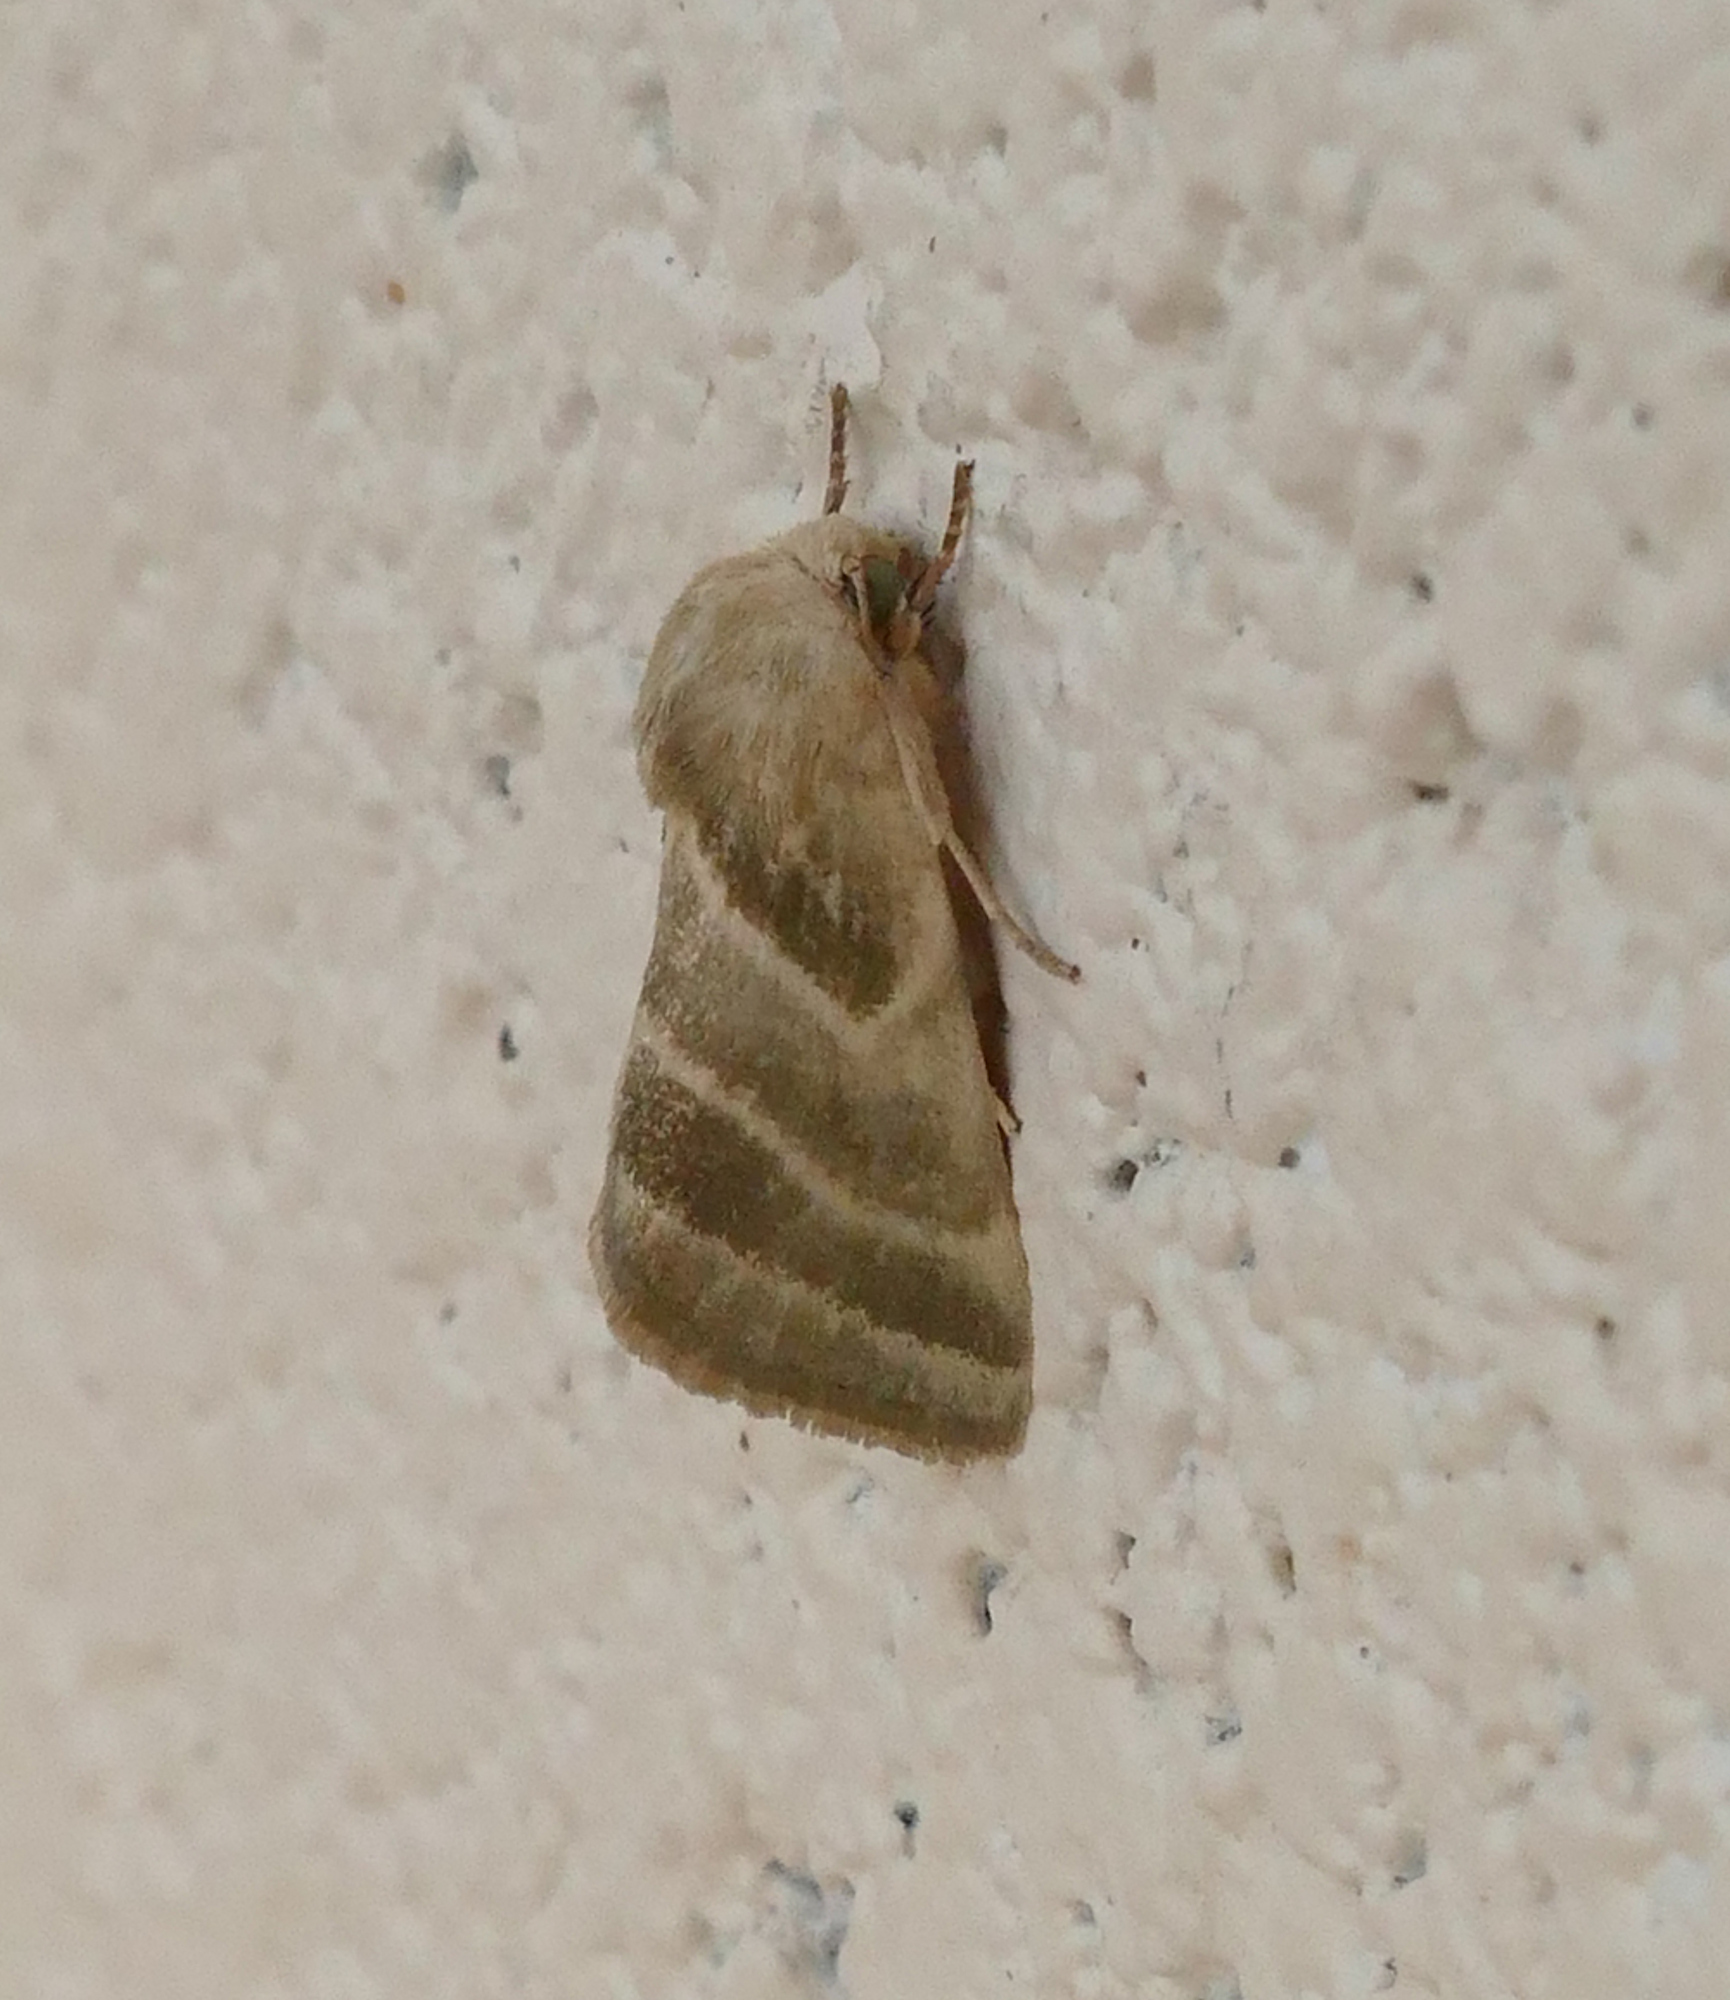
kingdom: Animalia
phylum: Arthropoda
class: Insecta
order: Lepidoptera
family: Noctuidae
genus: Schinia
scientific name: Schinia trifascia
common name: Three-lined flower moth
